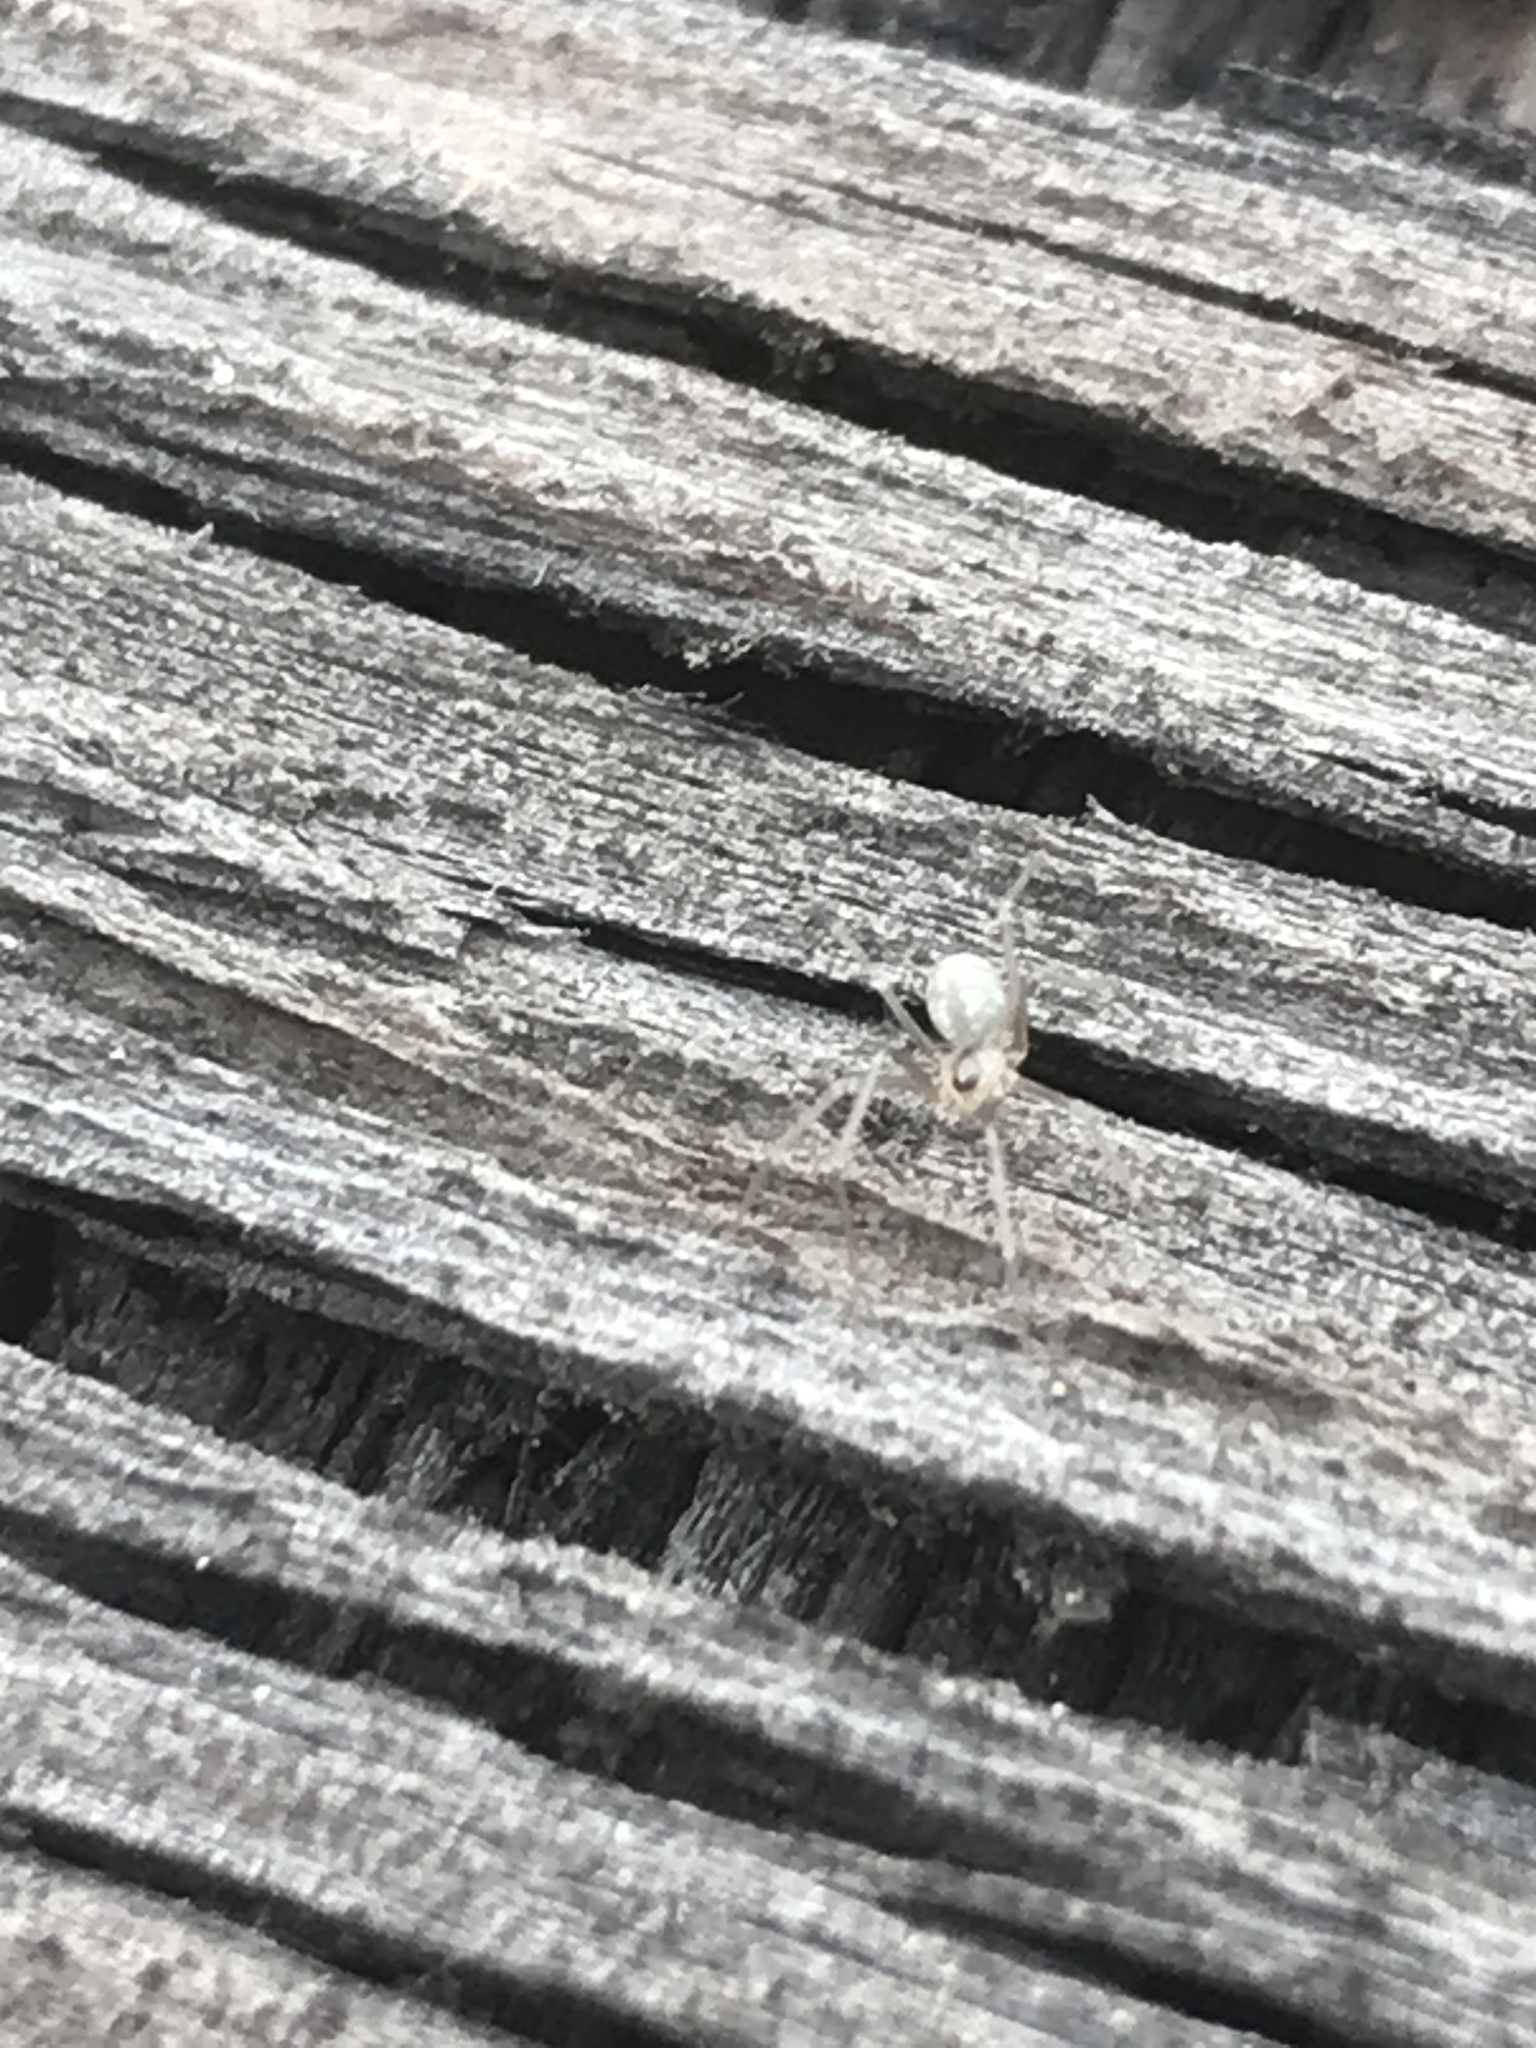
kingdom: Animalia
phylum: Arthropoda
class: Arachnida
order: Araneae
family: Pholcidae
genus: Psilochorus
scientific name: Psilochorus hesperus
